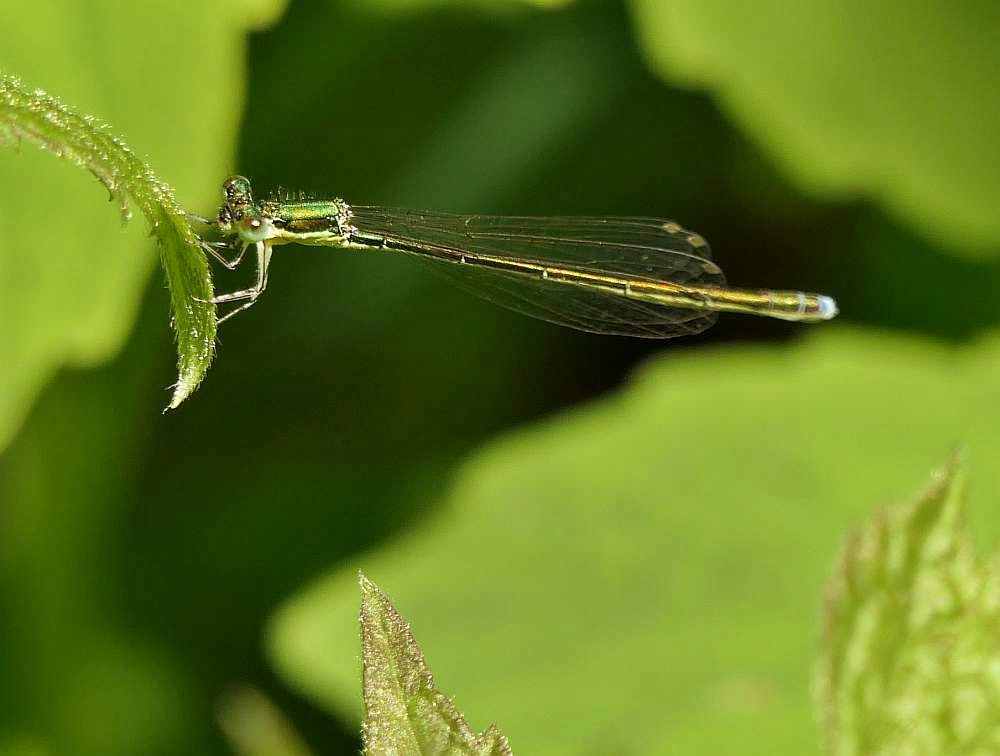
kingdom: Animalia
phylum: Arthropoda
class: Insecta
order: Odonata
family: Coenagrionidae
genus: Nehalennia
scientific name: Nehalennia irene
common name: Sedge sprite
